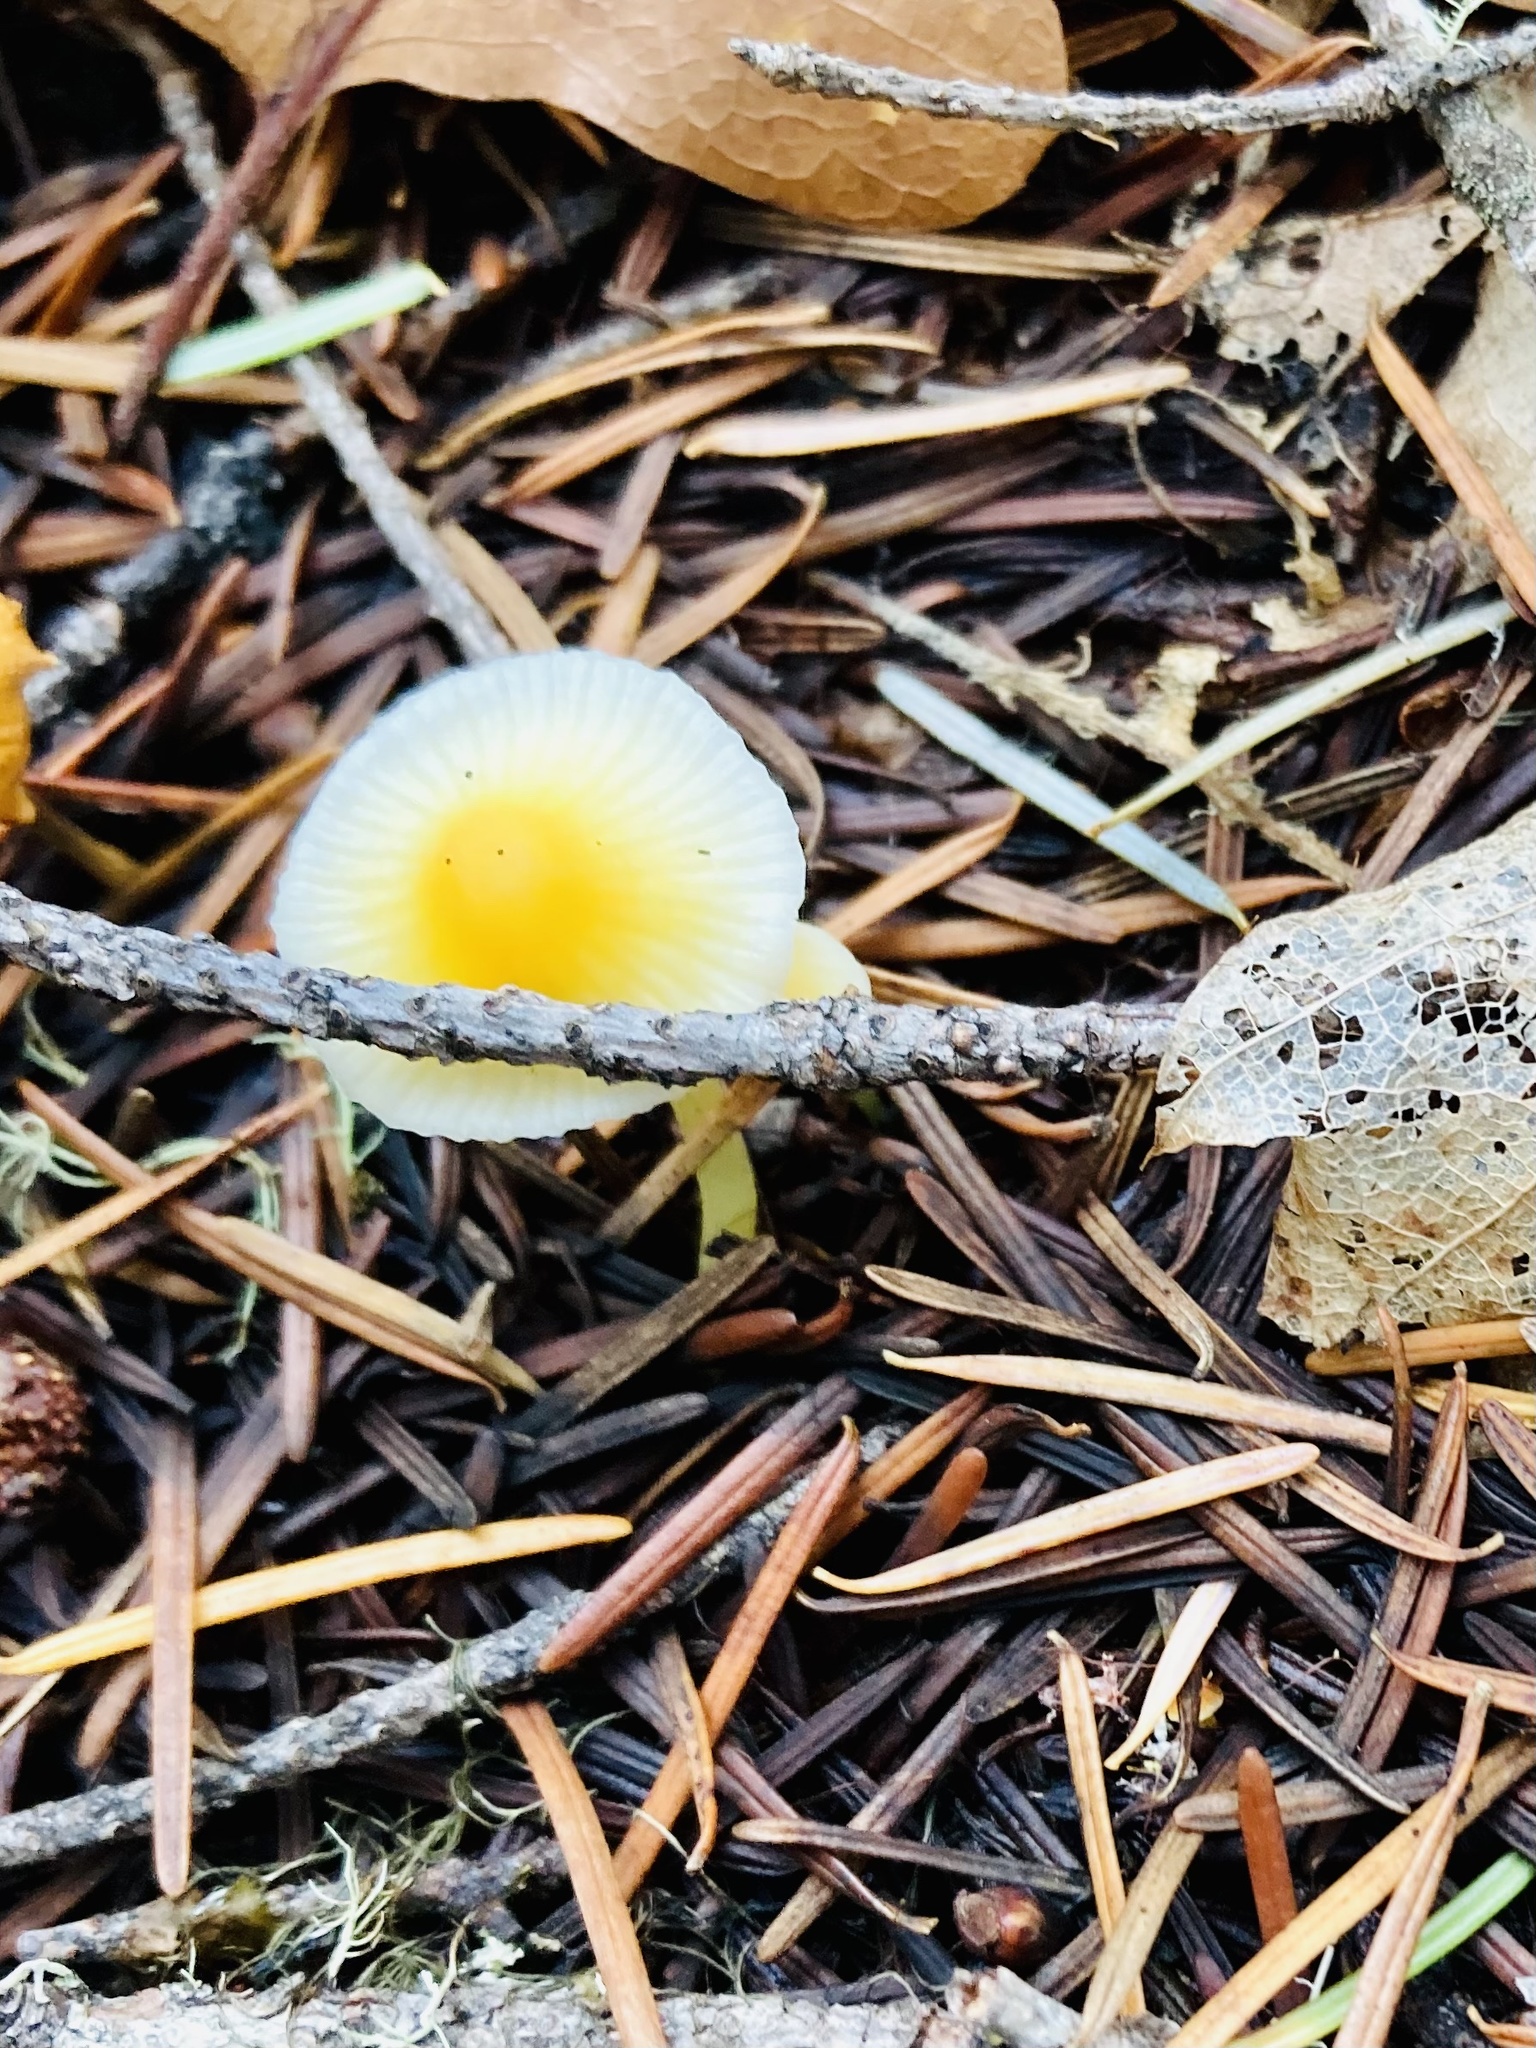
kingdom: Fungi
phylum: Basidiomycota
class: Agaricomycetes
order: Agaricales
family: Mycenaceae
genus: Atheniella
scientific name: Atheniella aurantiidisca
